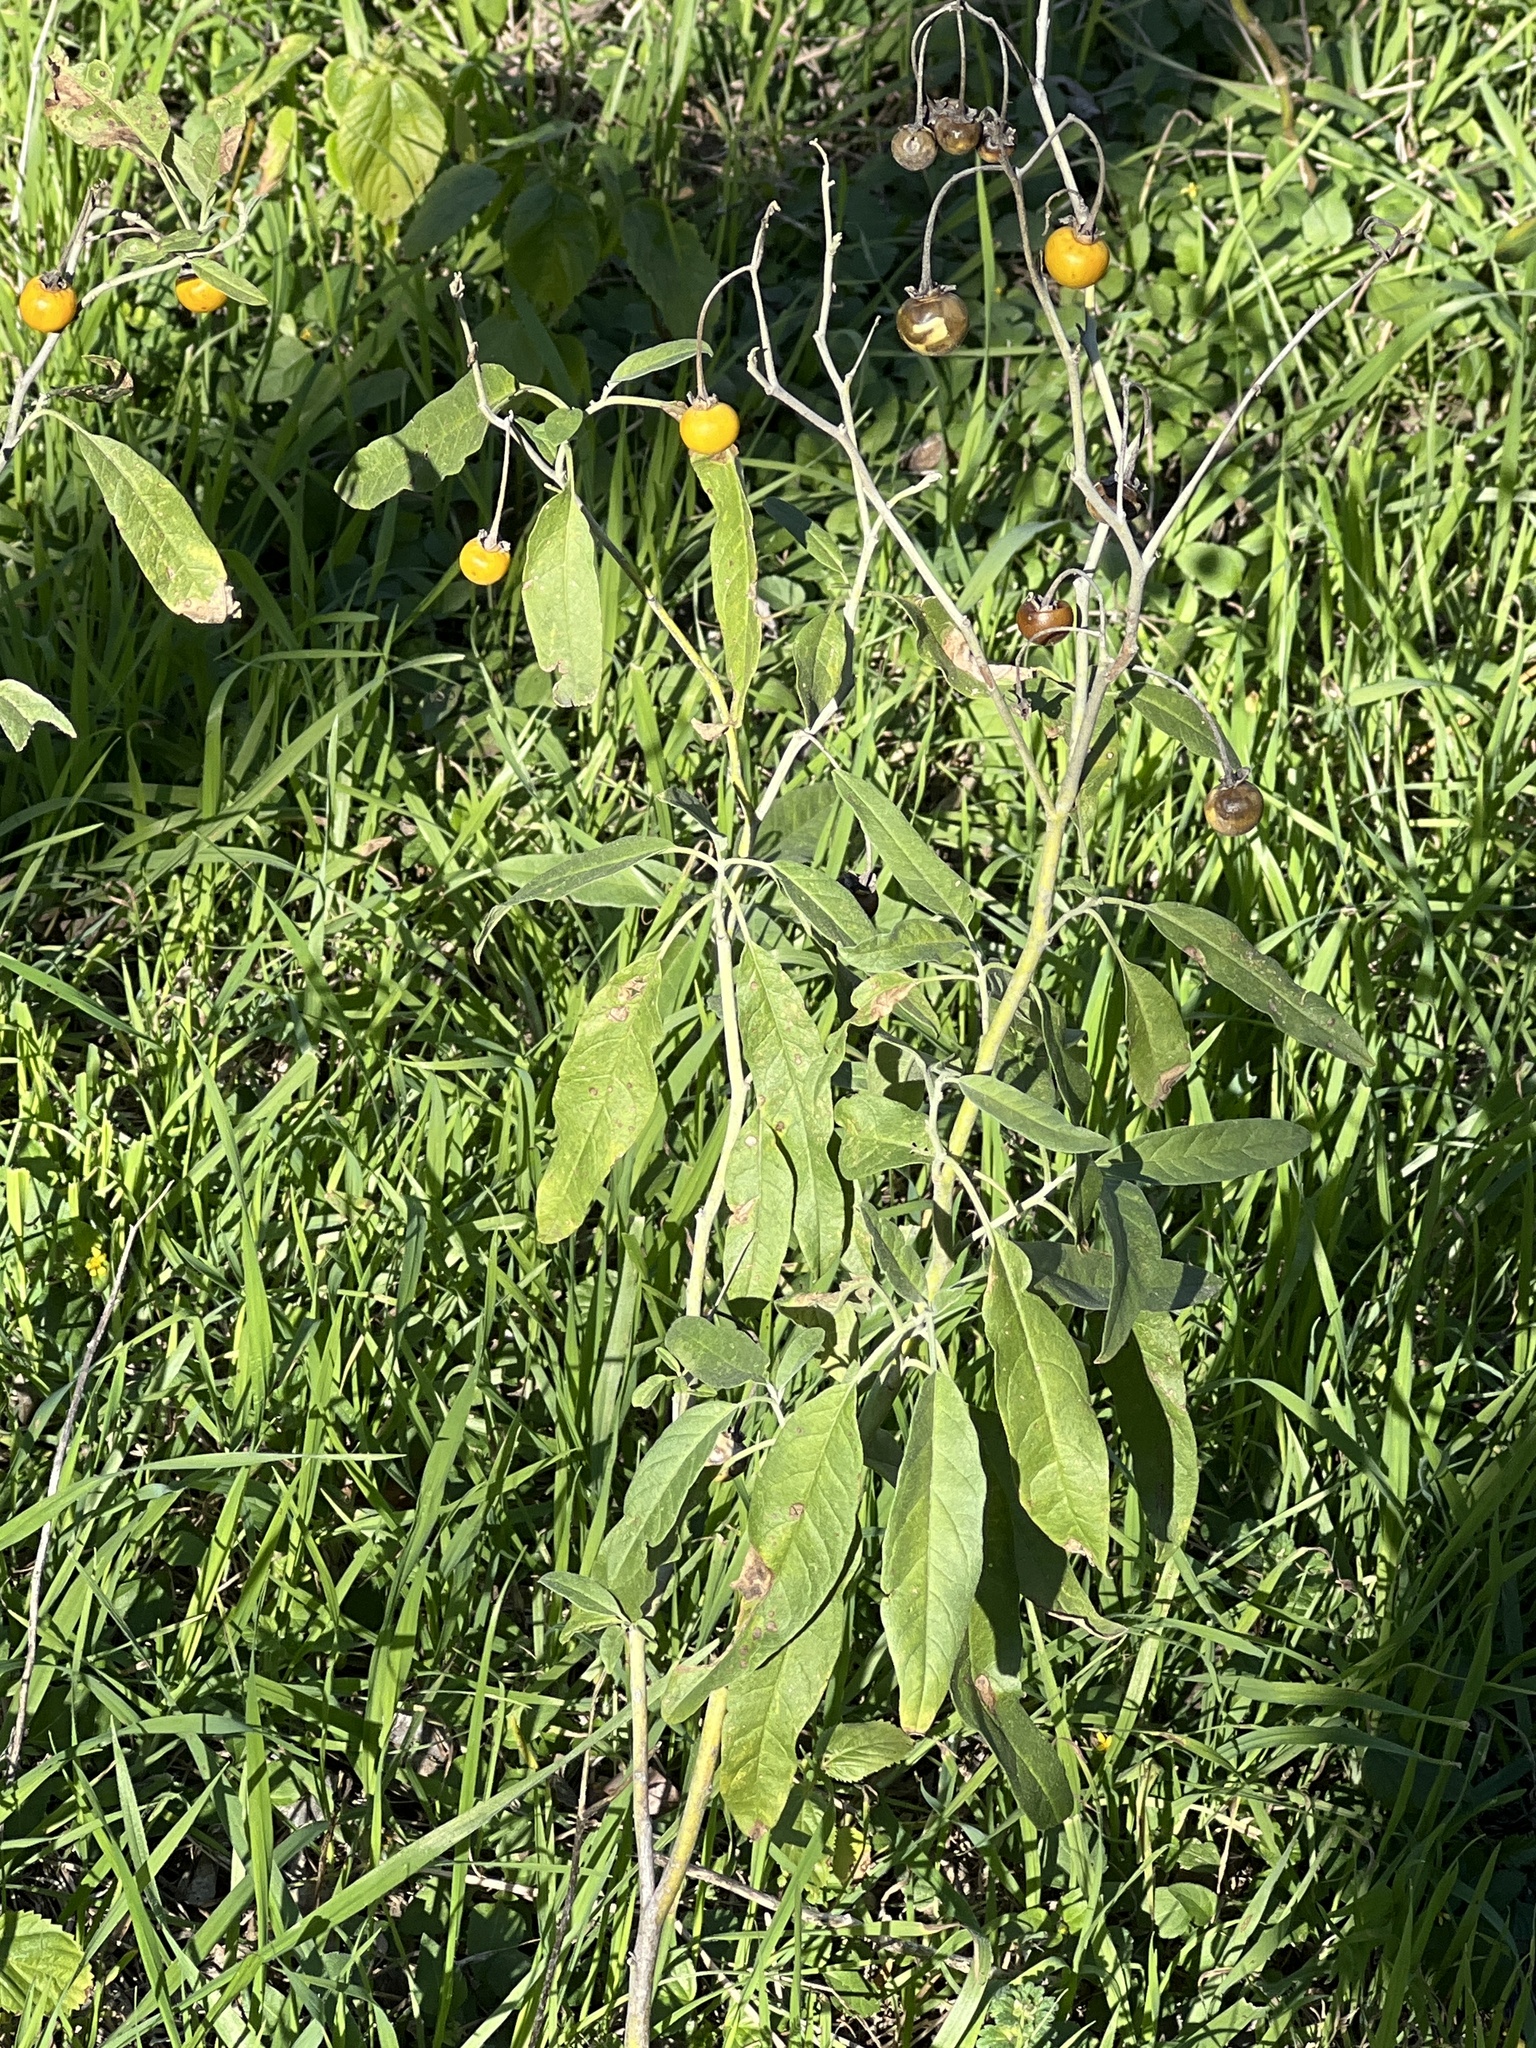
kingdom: Plantae
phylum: Tracheophyta
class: Magnoliopsida
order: Solanales
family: Solanaceae
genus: Solanum
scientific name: Solanum elaeagnifolium
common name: Silverleaf nightshade
